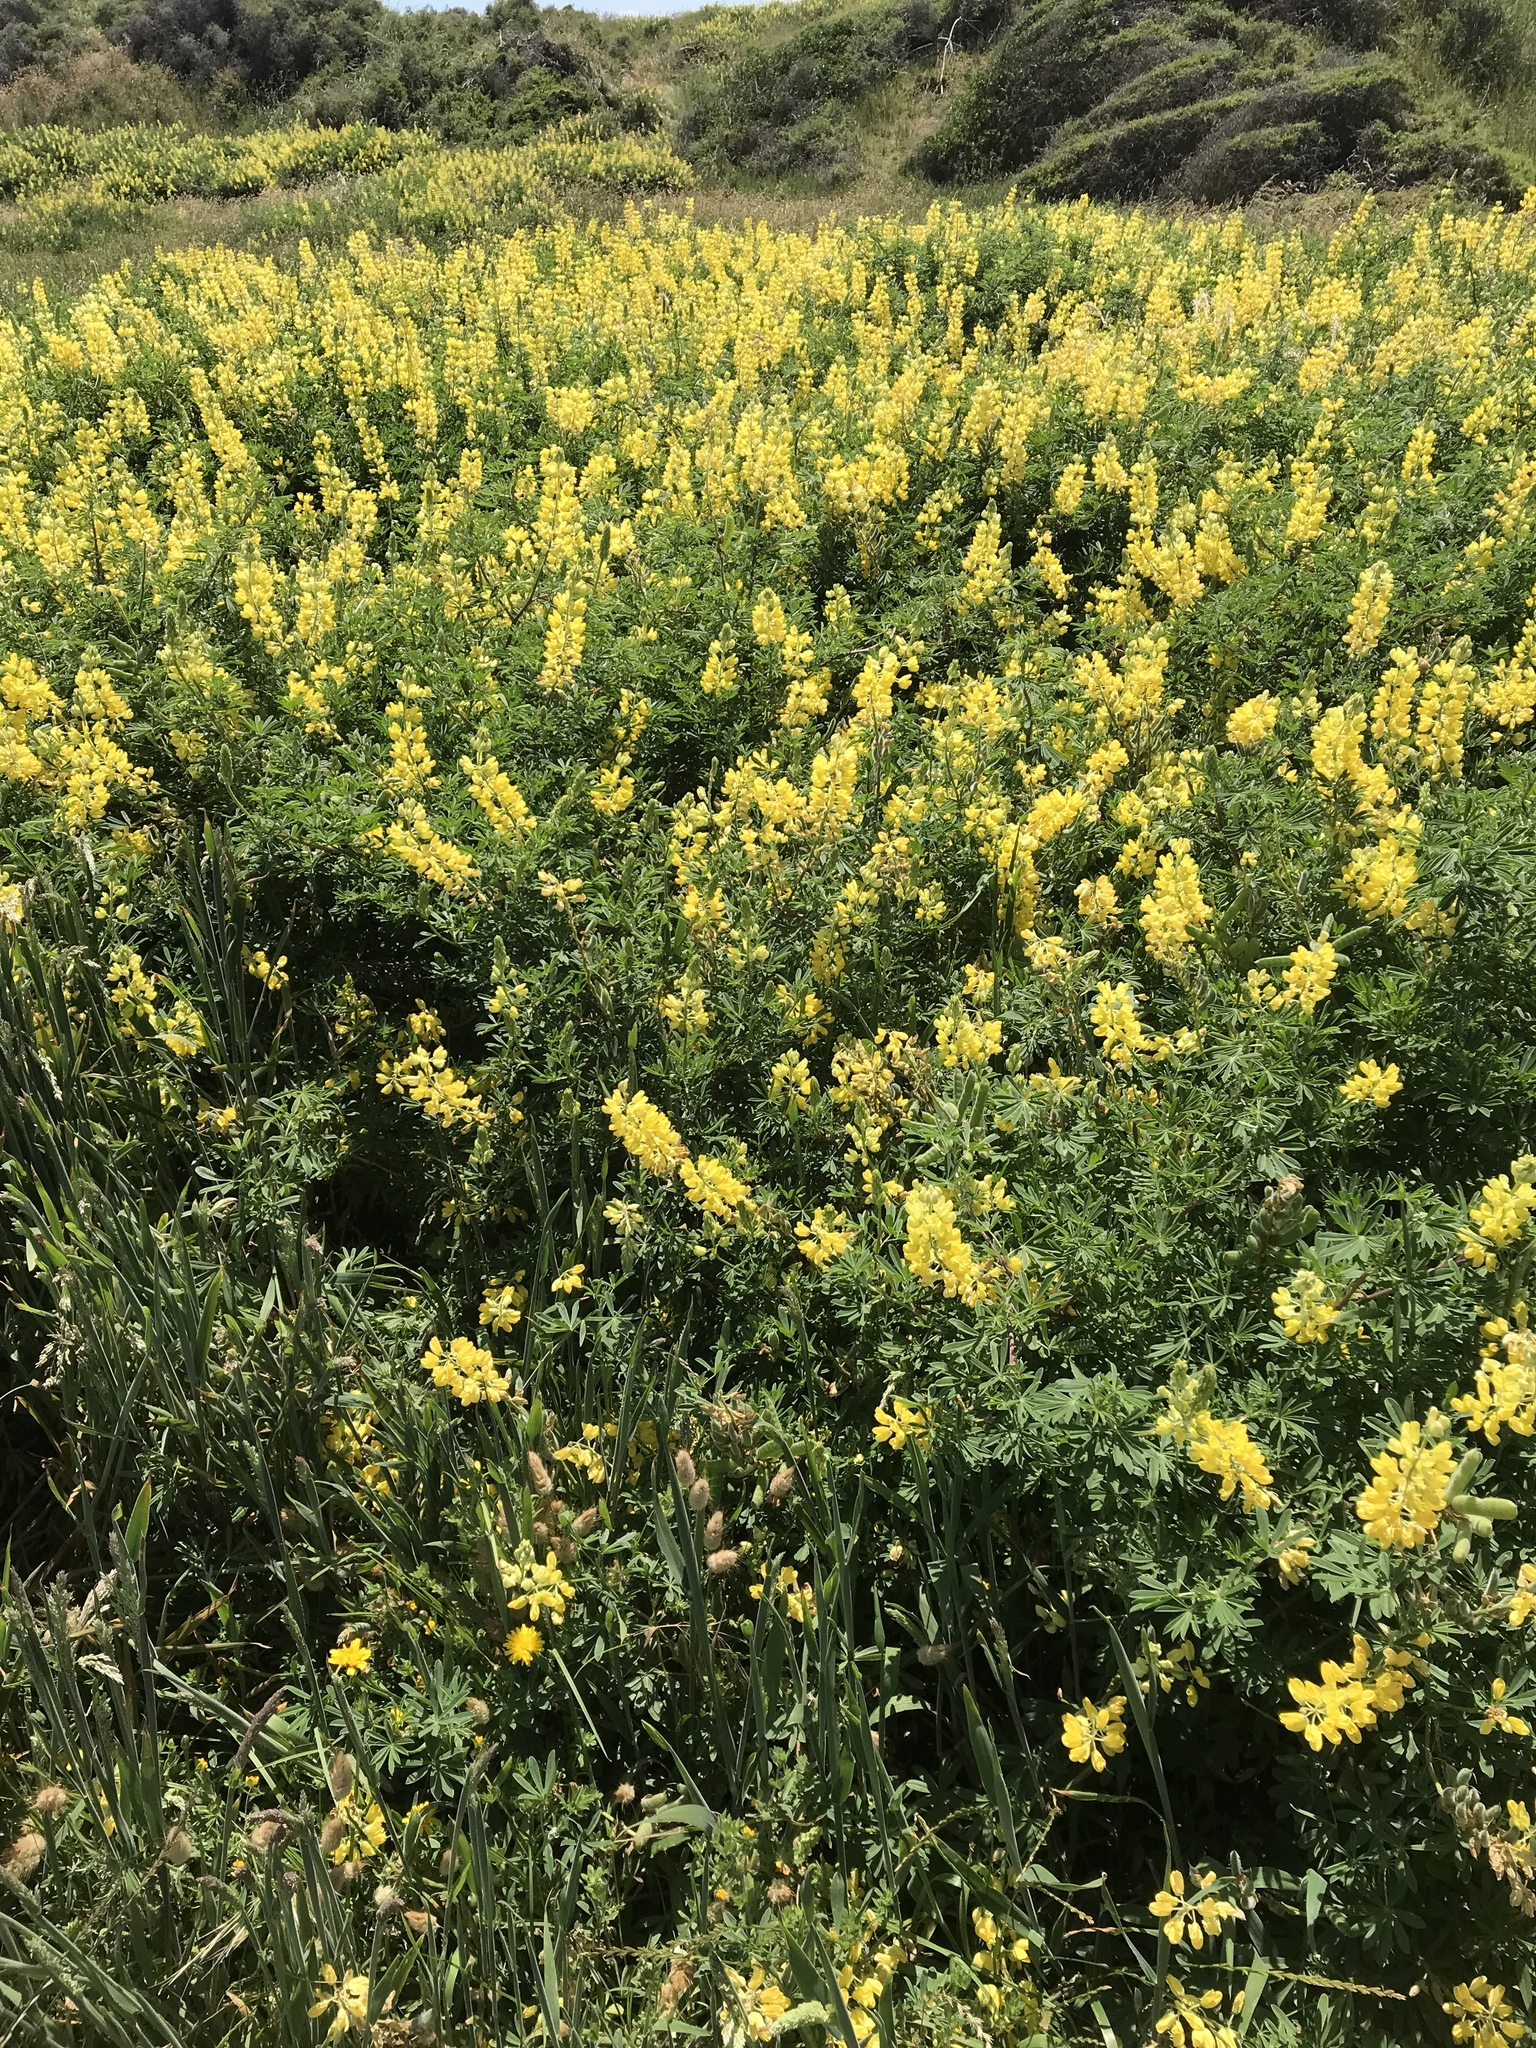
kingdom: Plantae
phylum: Tracheophyta
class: Magnoliopsida
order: Fabales
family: Fabaceae
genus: Lupinus
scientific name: Lupinus arboreus
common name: Yellow bush lupine
